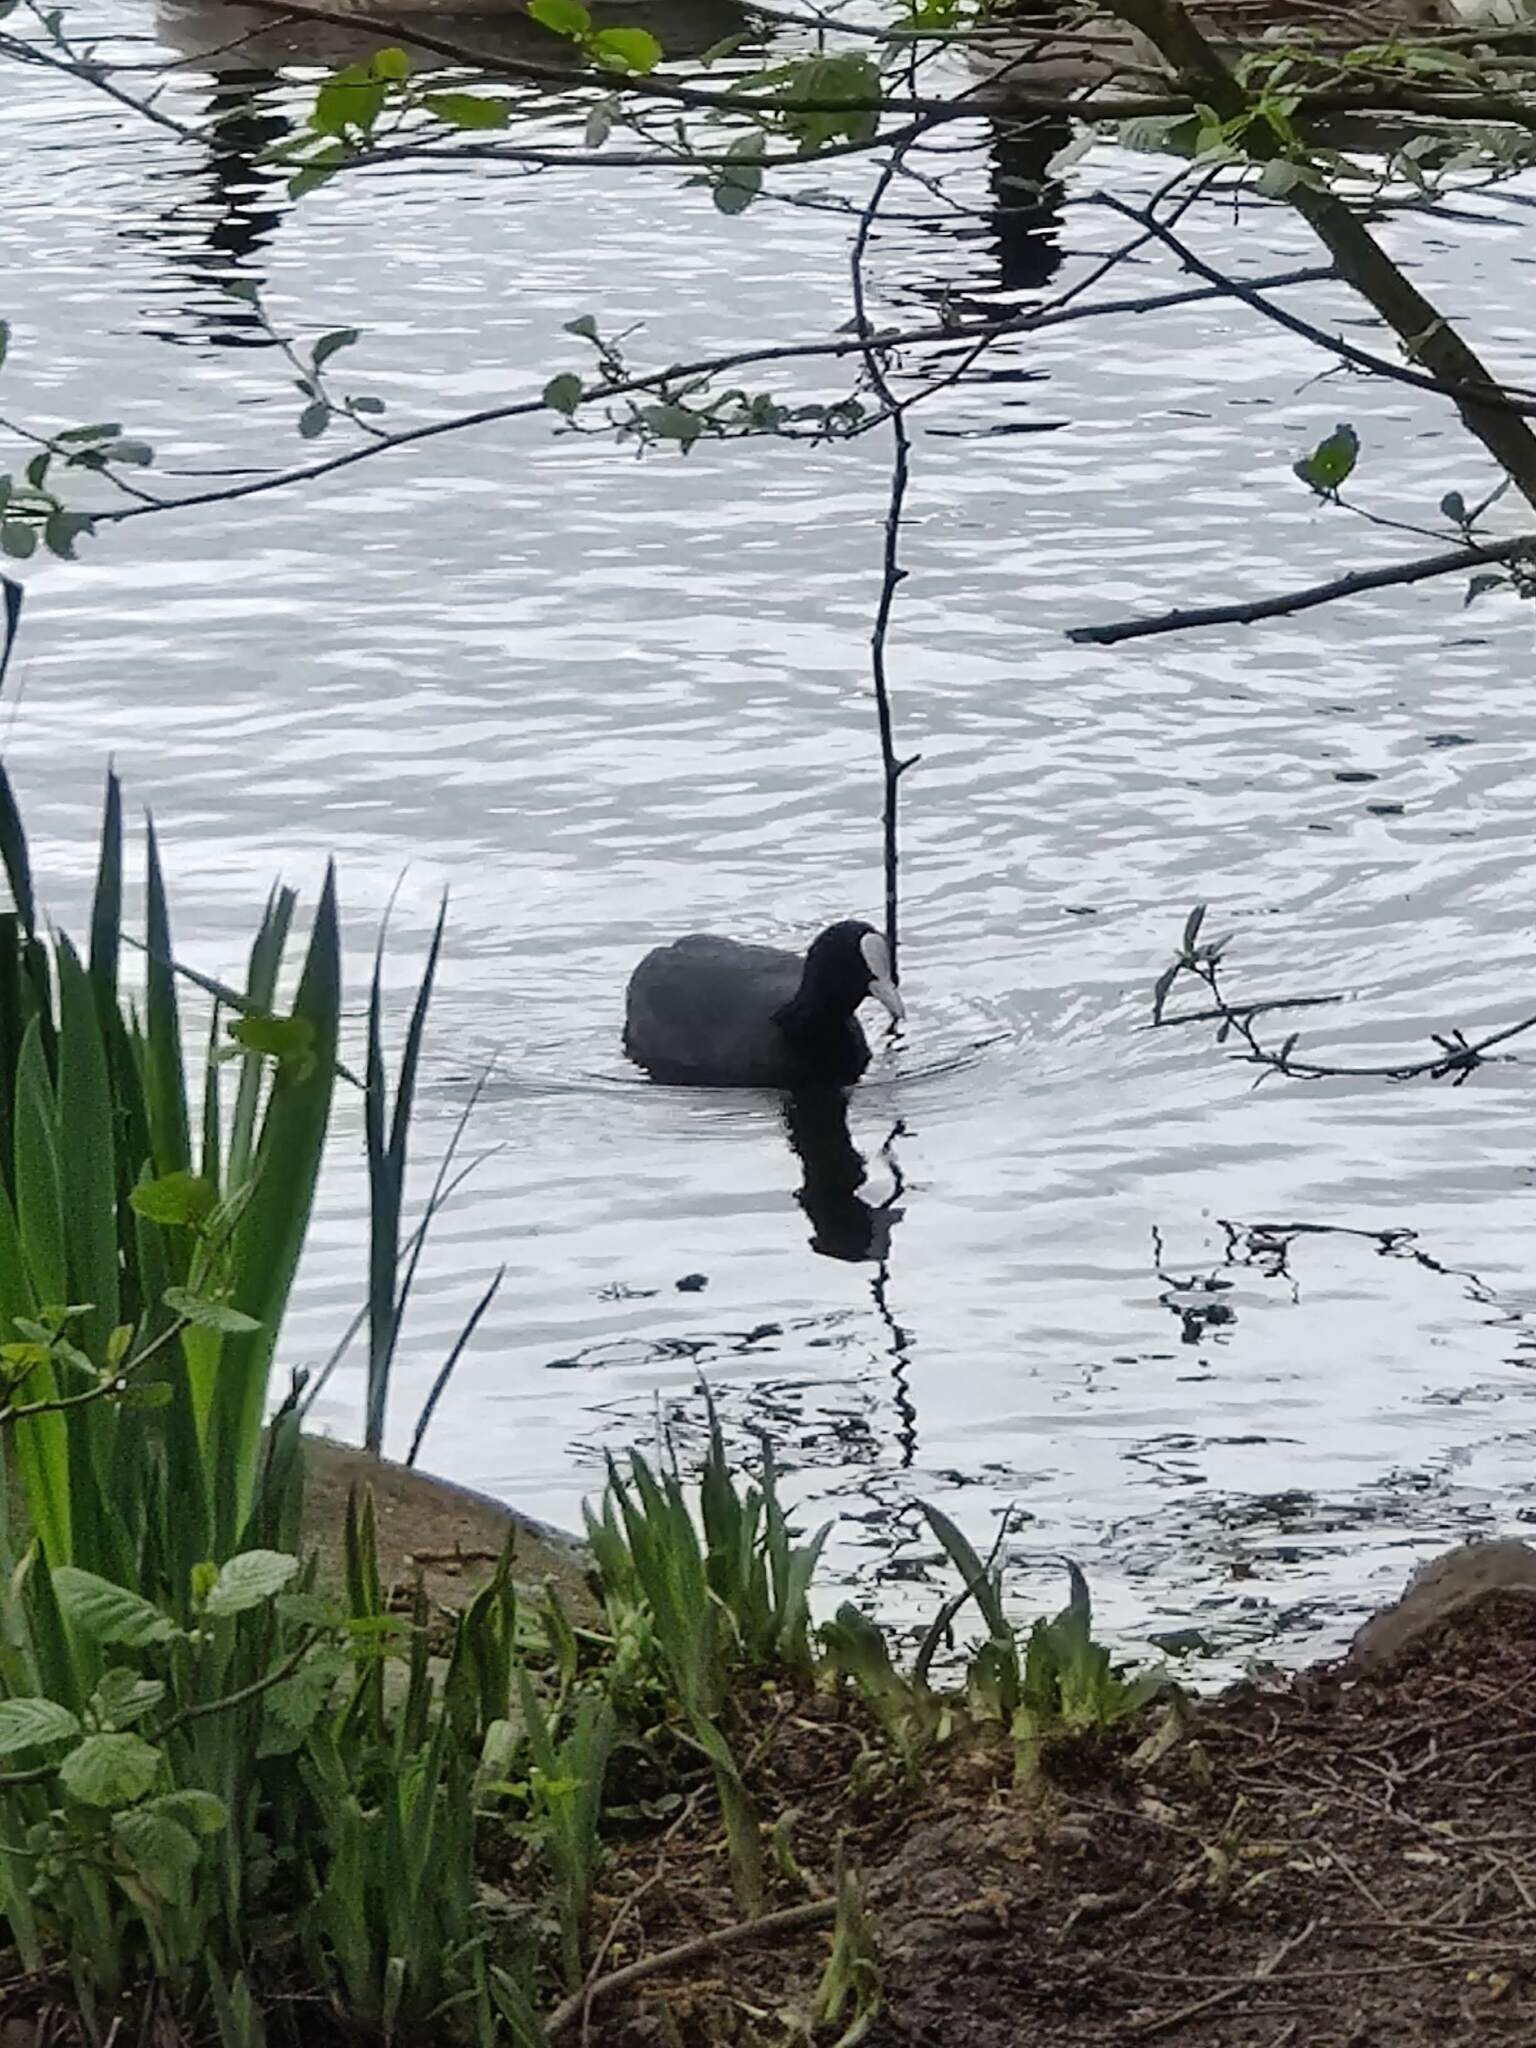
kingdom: Animalia
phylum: Chordata
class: Aves
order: Gruiformes
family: Rallidae
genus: Fulica
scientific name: Fulica atra
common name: Eurasian coot
